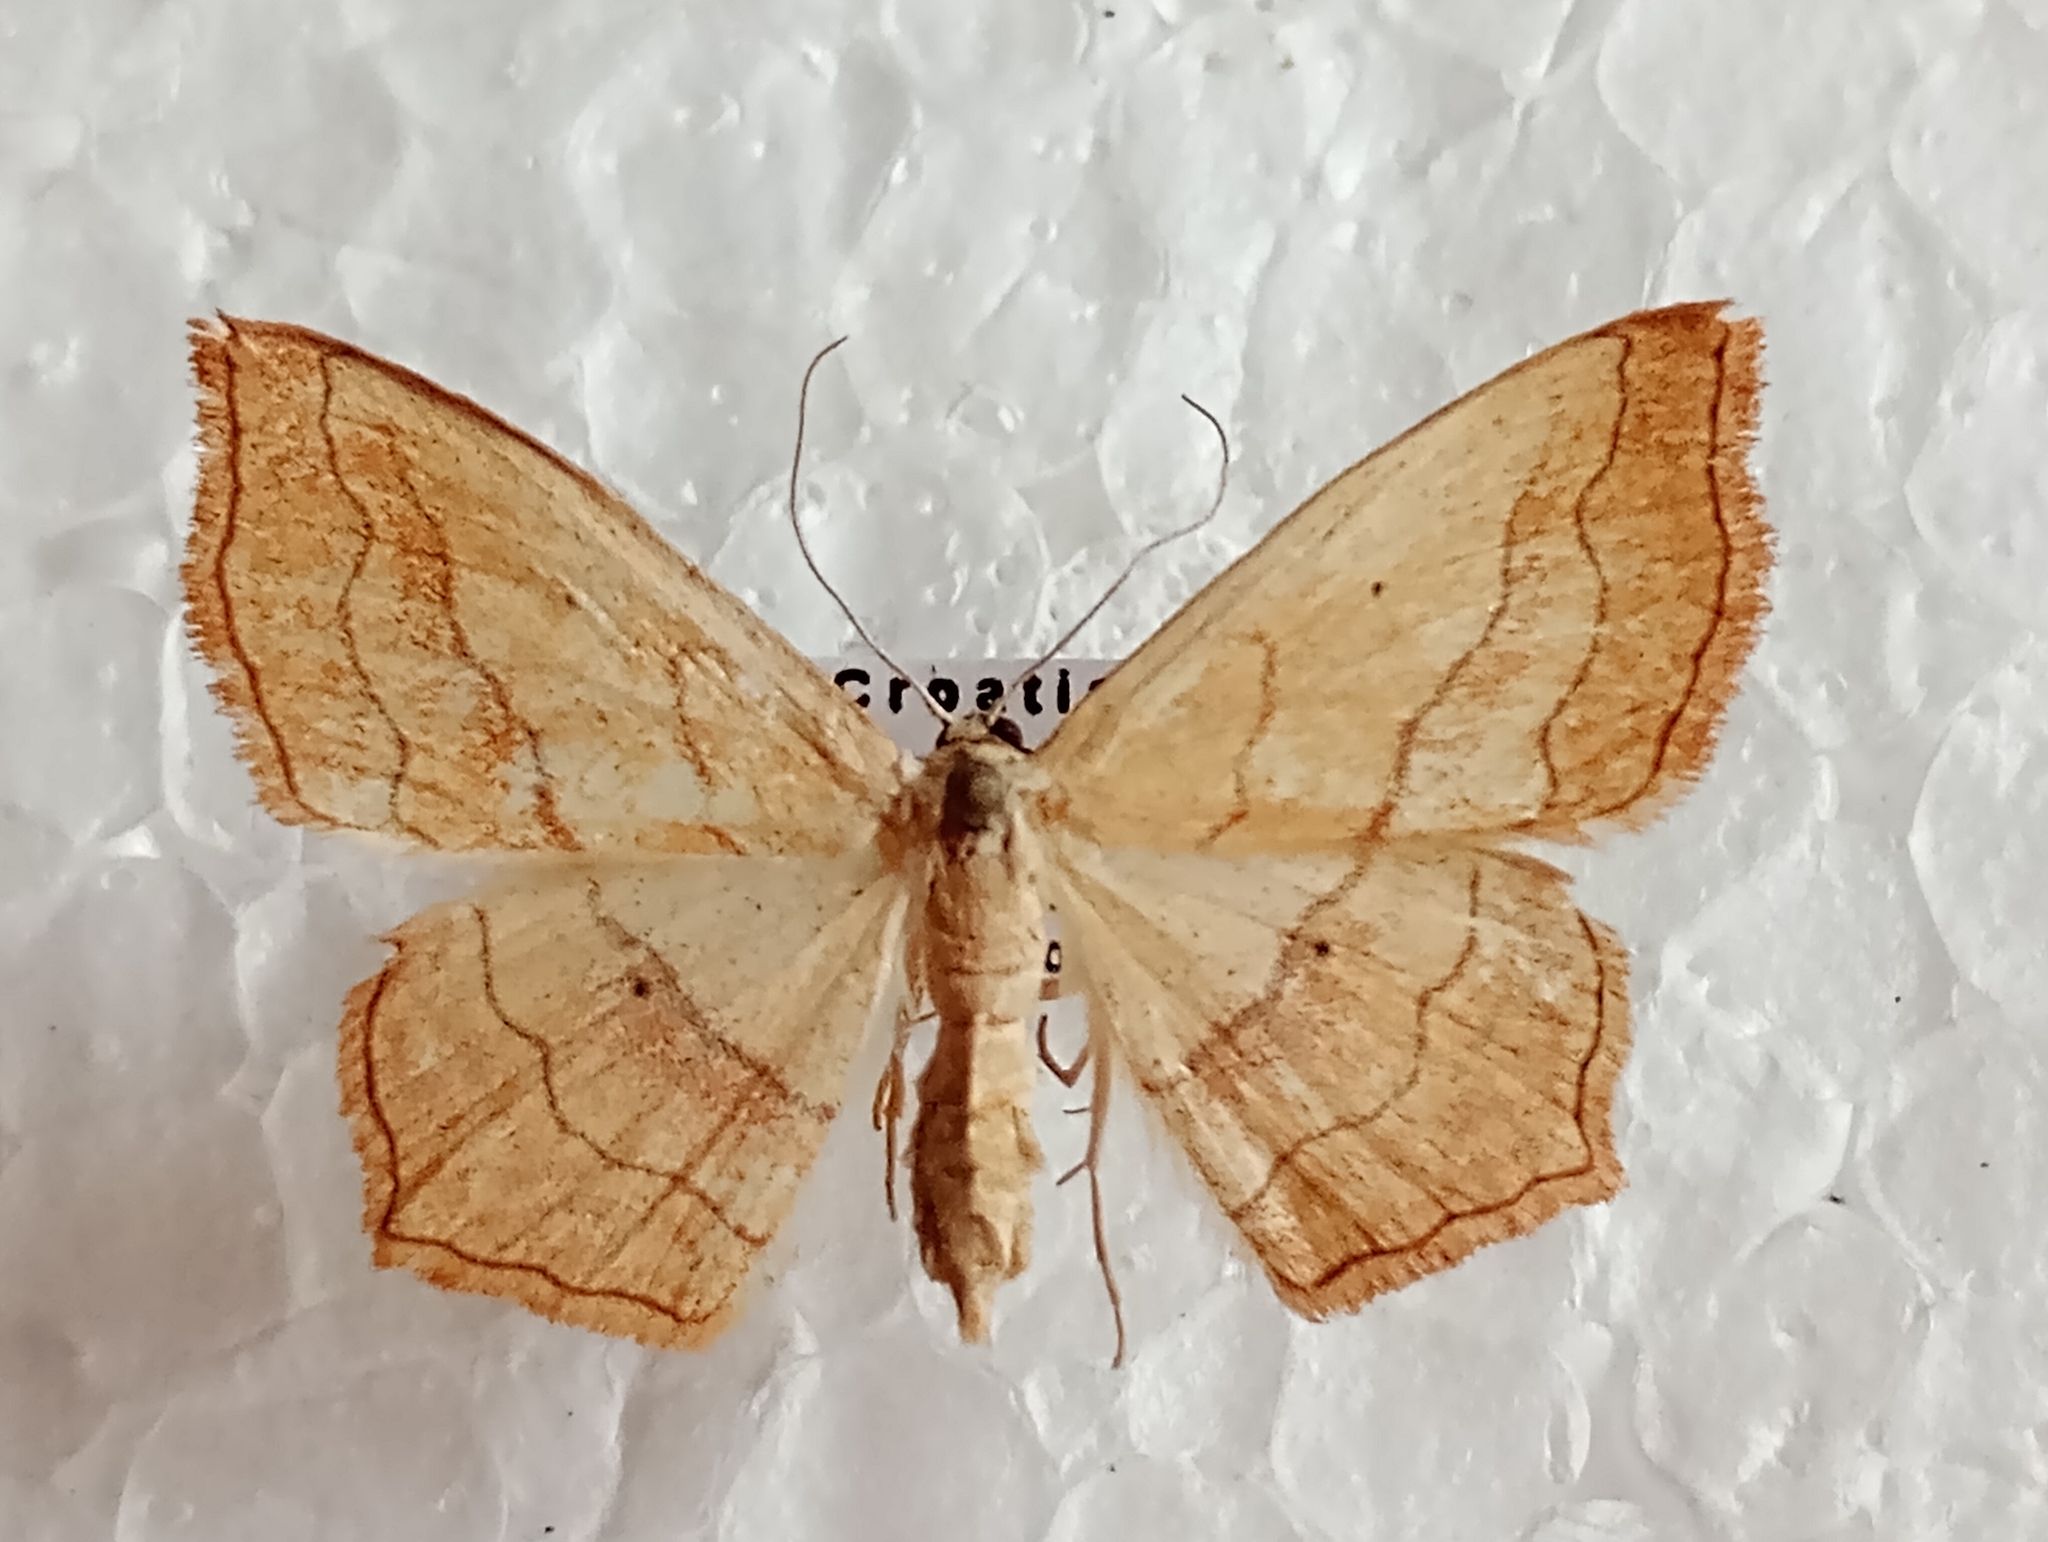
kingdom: Animalia
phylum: Arthropoda
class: Insecta
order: Lepidoptera
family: Geometridae
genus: Scopula
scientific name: Scopula imitaria
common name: Small blood-vein
